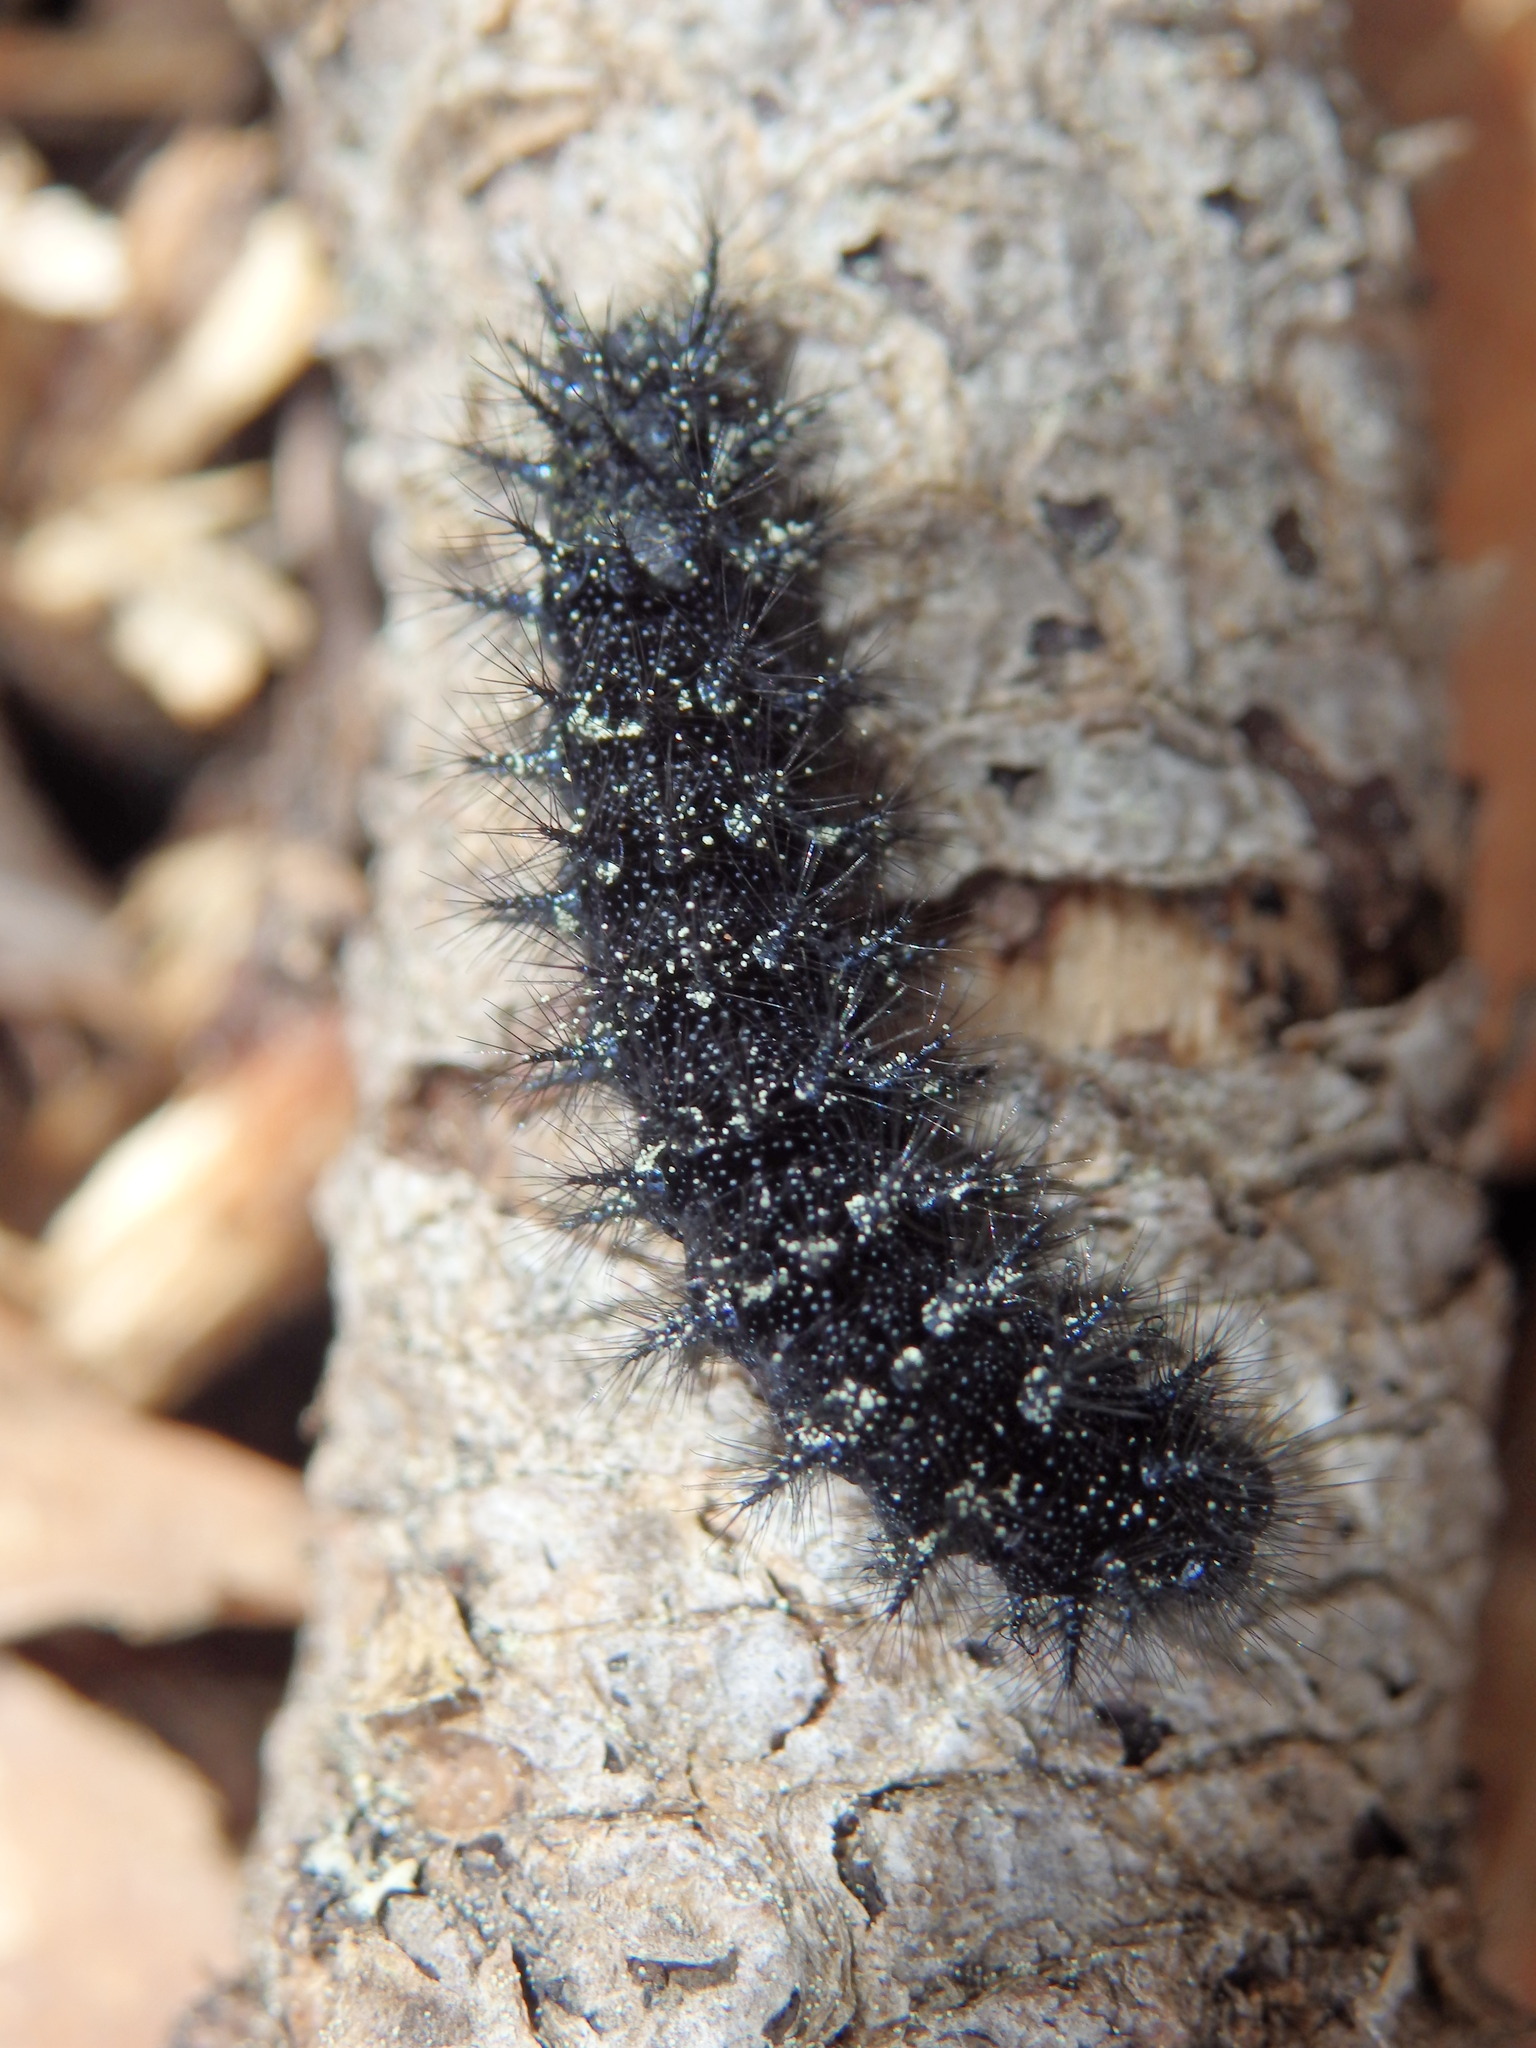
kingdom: Animalia
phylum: Arthropoda
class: Insecta
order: Lepidoptera
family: Nymphalidae
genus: Euphydryas
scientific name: Euphydryas aurinia
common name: Marsh fritillary
